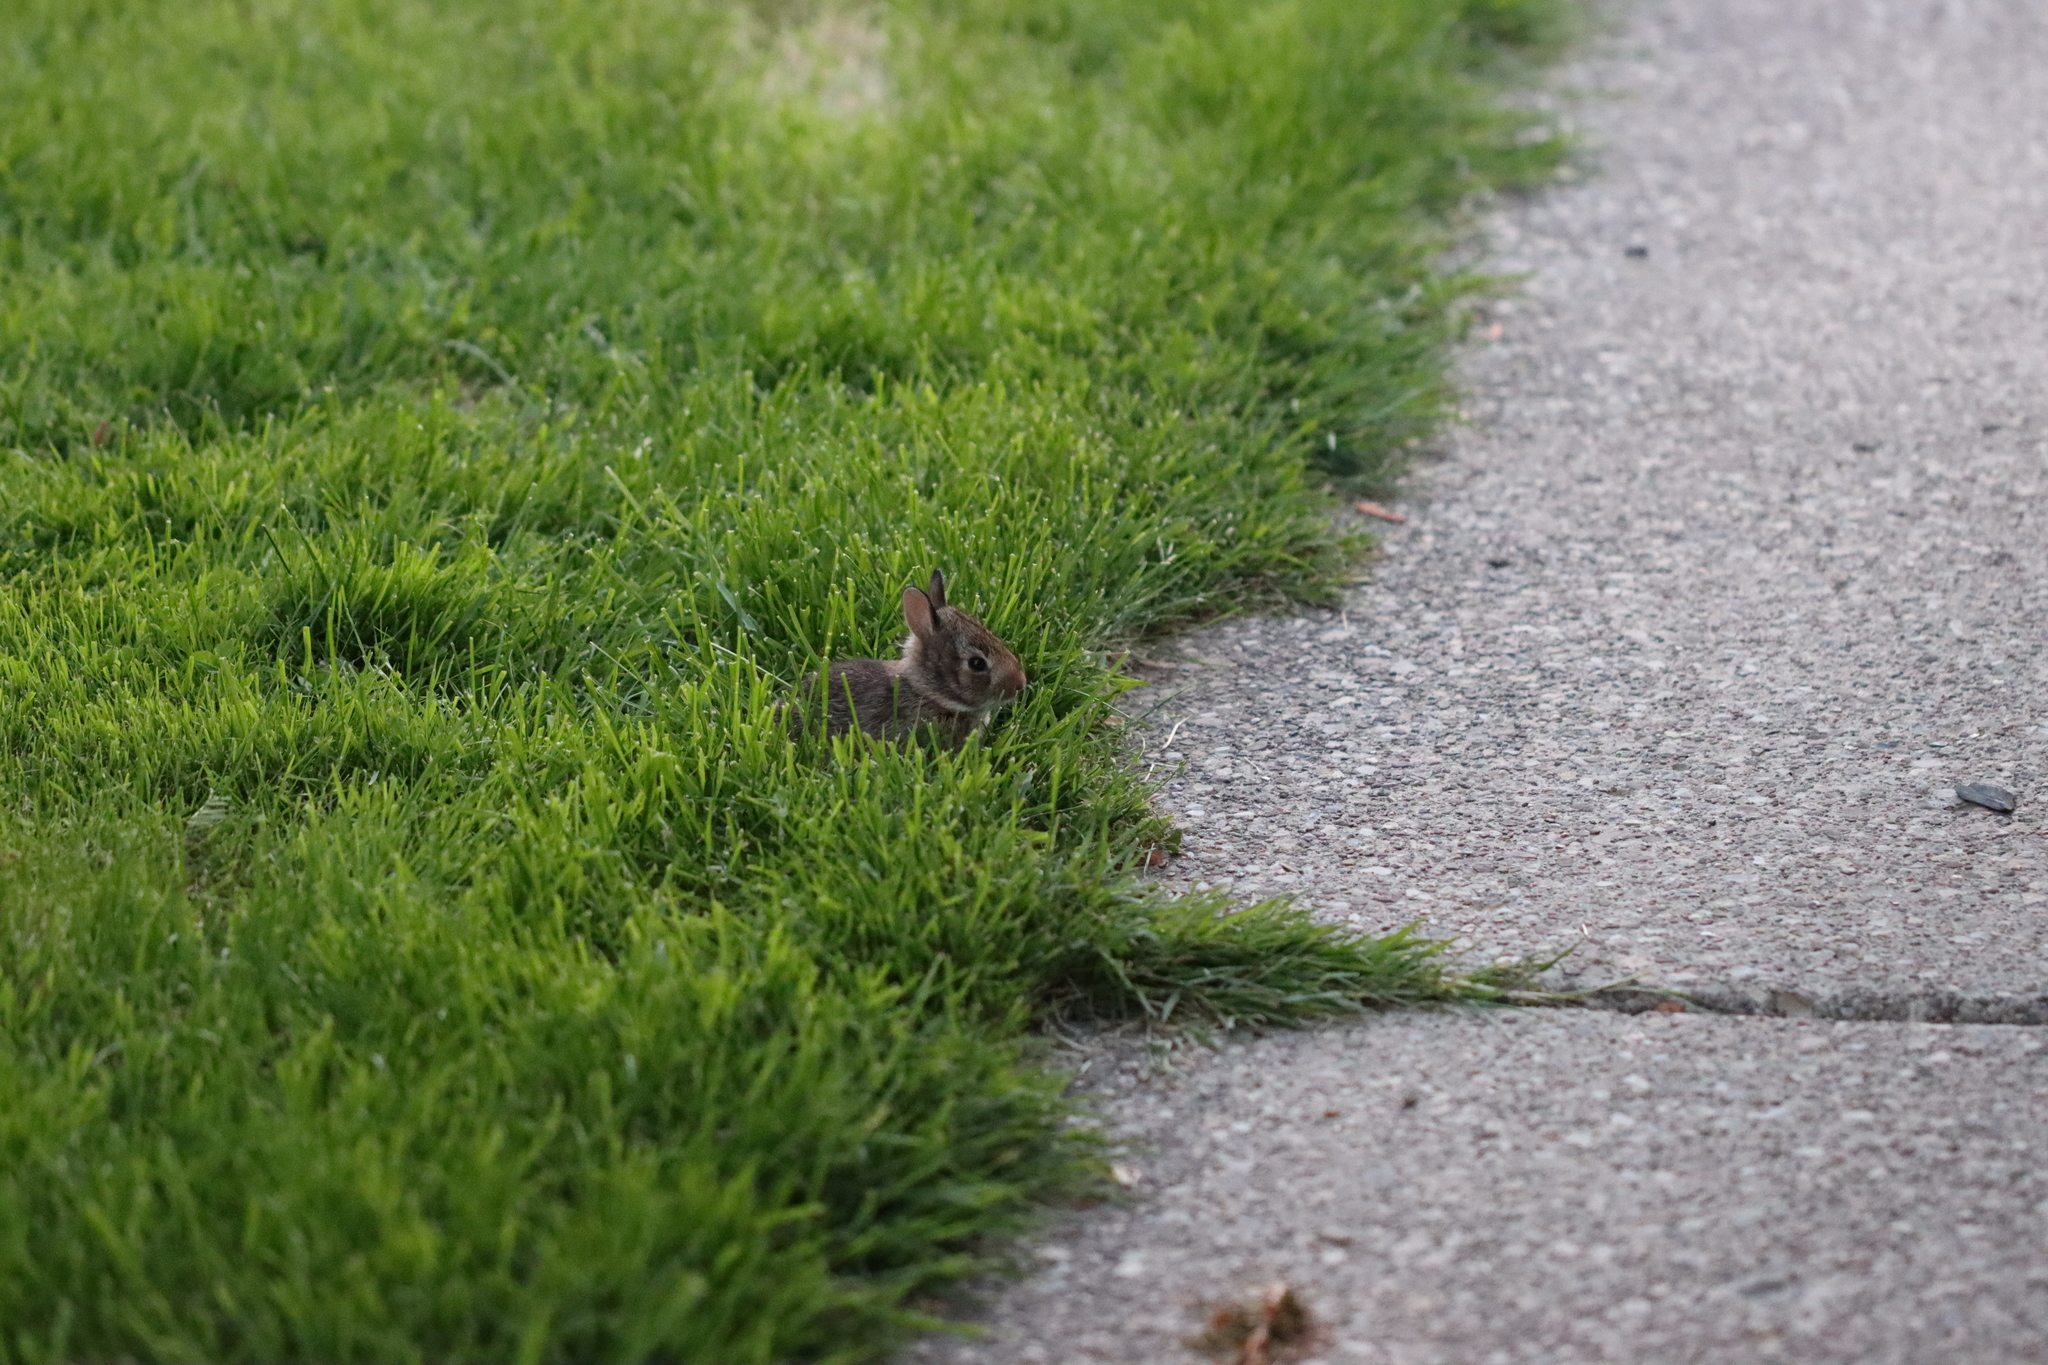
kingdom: Animalia
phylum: Chordata
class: Mammalia
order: Lagomorpha
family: Leporidae
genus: Sylvilagus
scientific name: Sylvilagus floridanus
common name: Eastern cottontail
